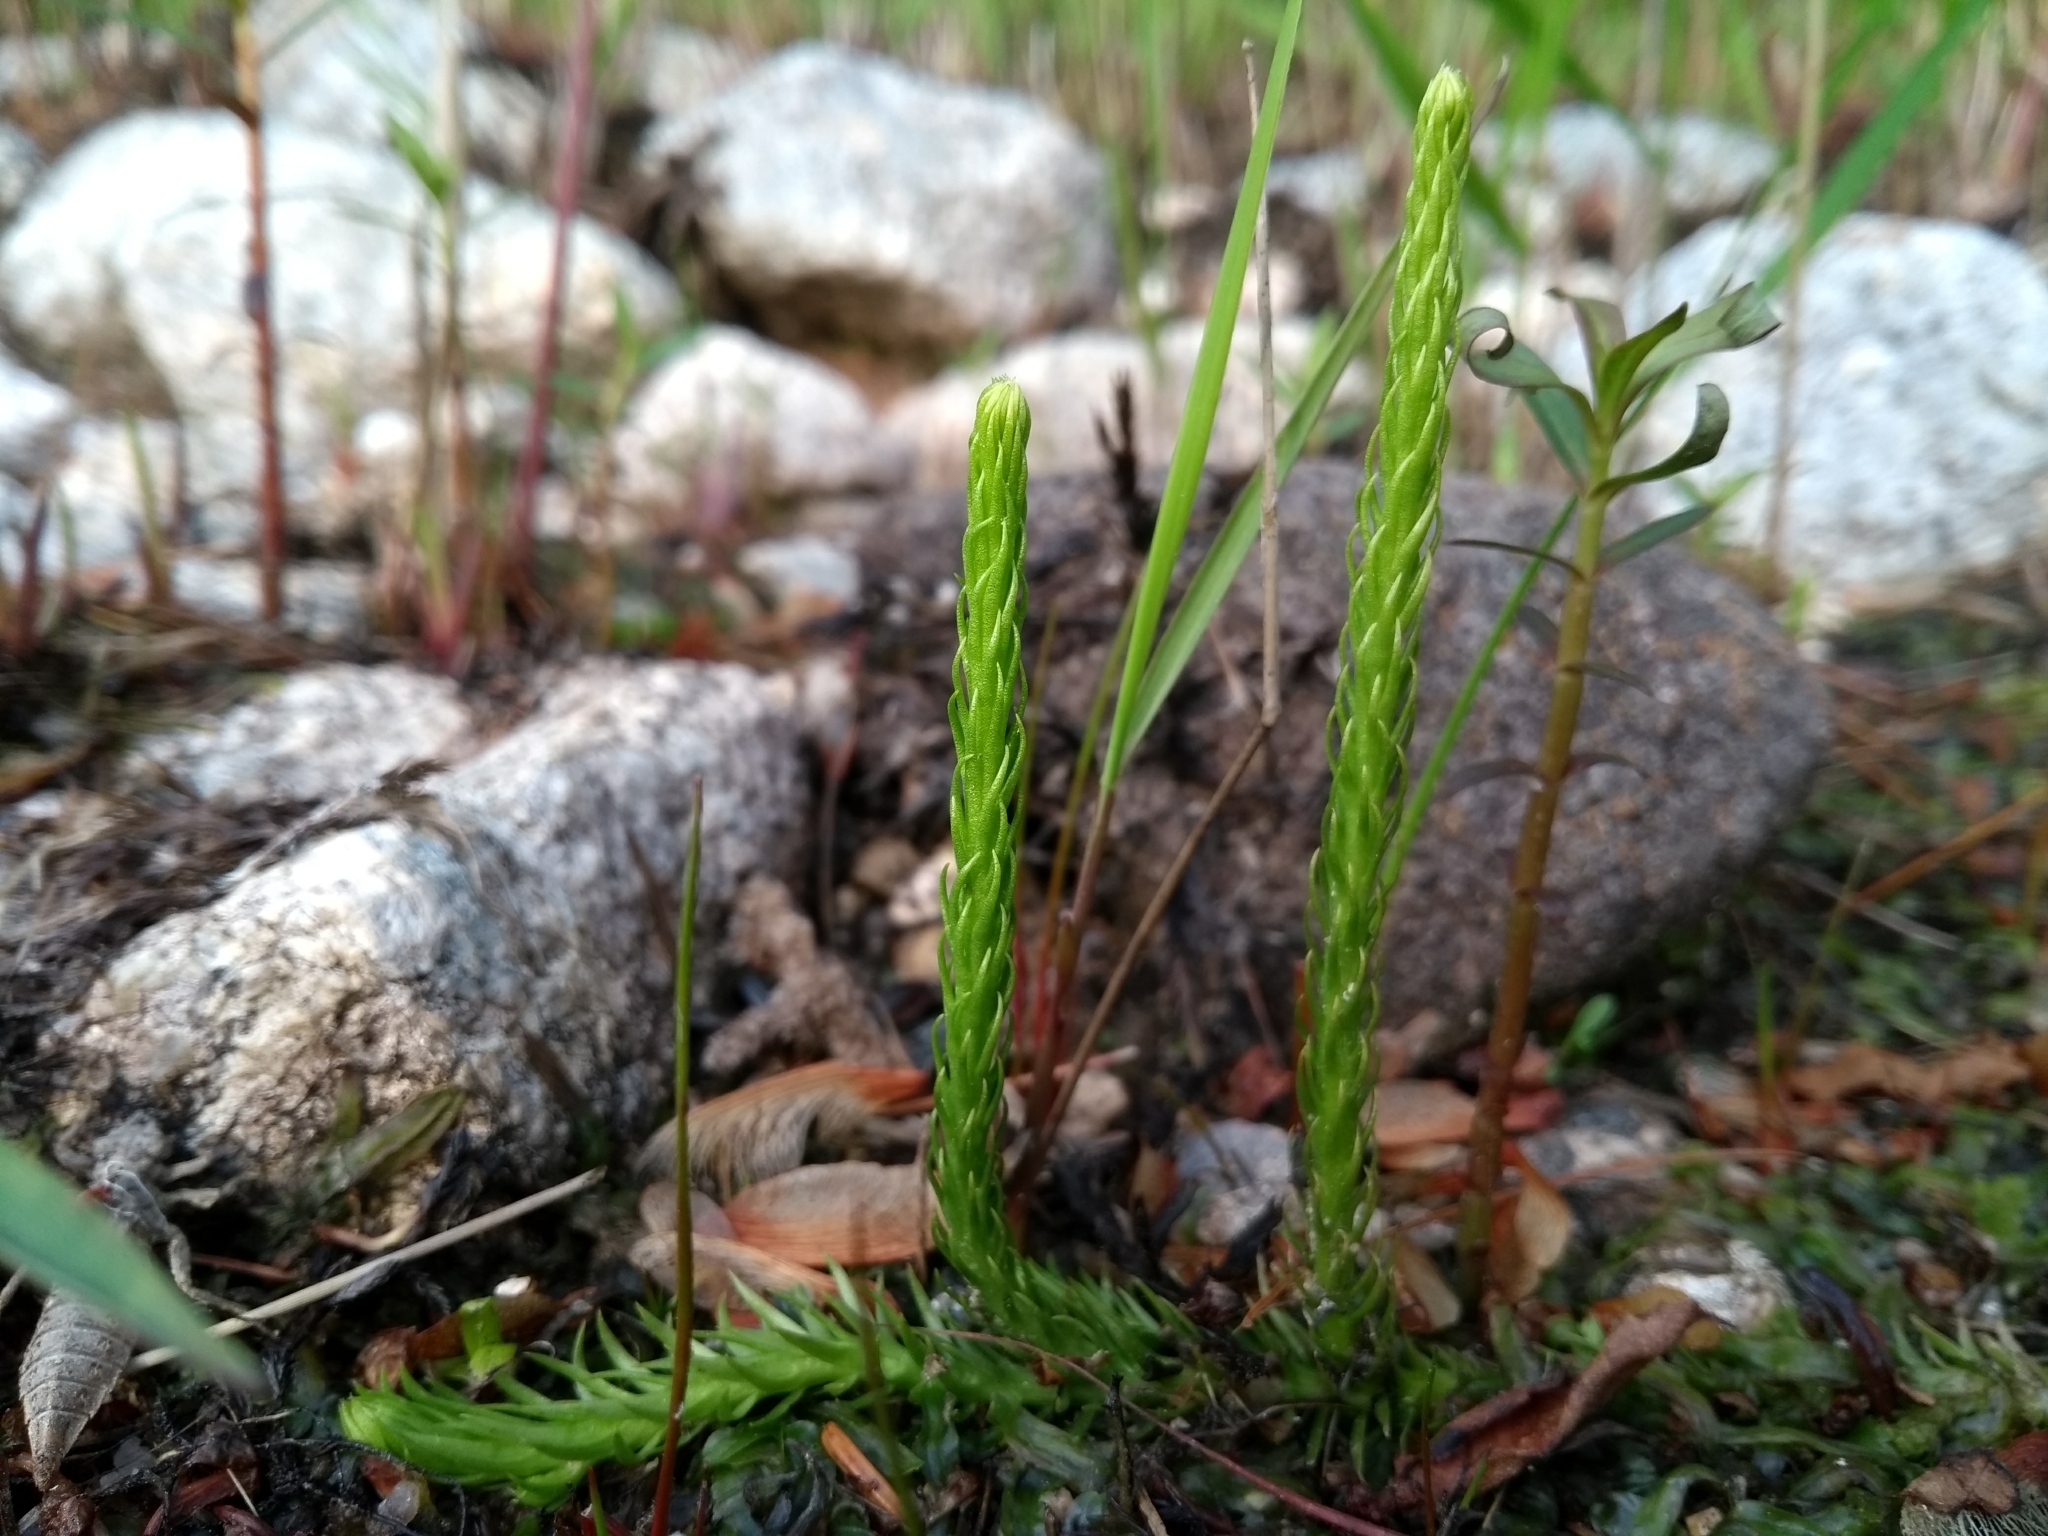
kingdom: Plantae
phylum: Tracheophyta
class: Lycopodiopsida
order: Lycopodiales
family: Lycopodiaceae
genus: Lycopodiella
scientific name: Lycopodiella appressa
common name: Appressed bog clubmoss
